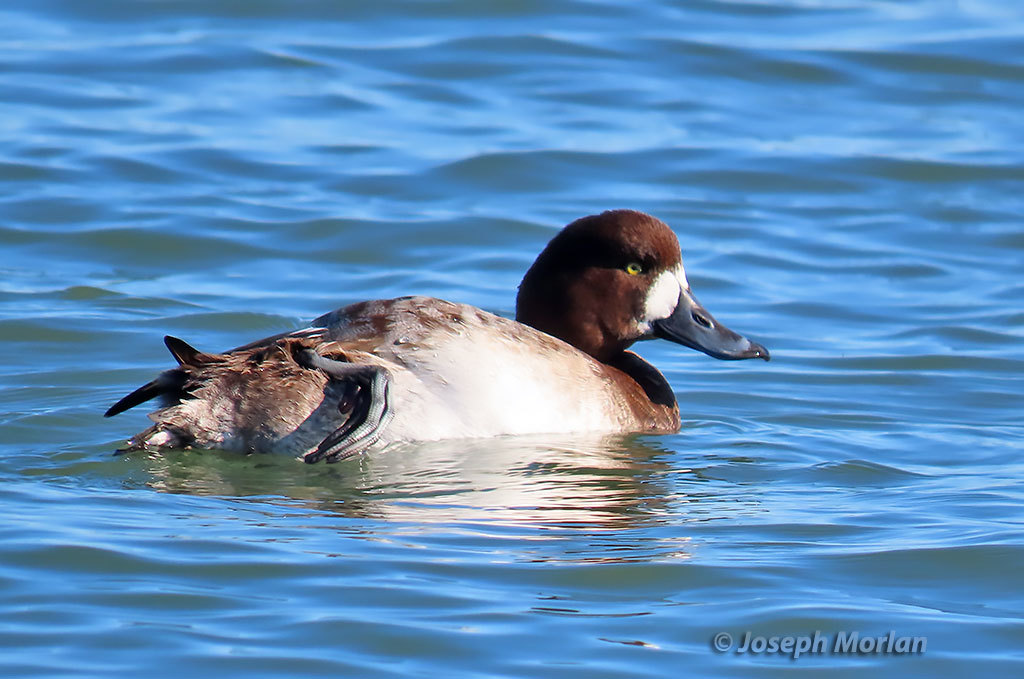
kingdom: Animalia
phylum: Chordata
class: Aves
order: Anseriformes
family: Anatidae
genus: Aythya
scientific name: Aythya marila
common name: Greater scaup
